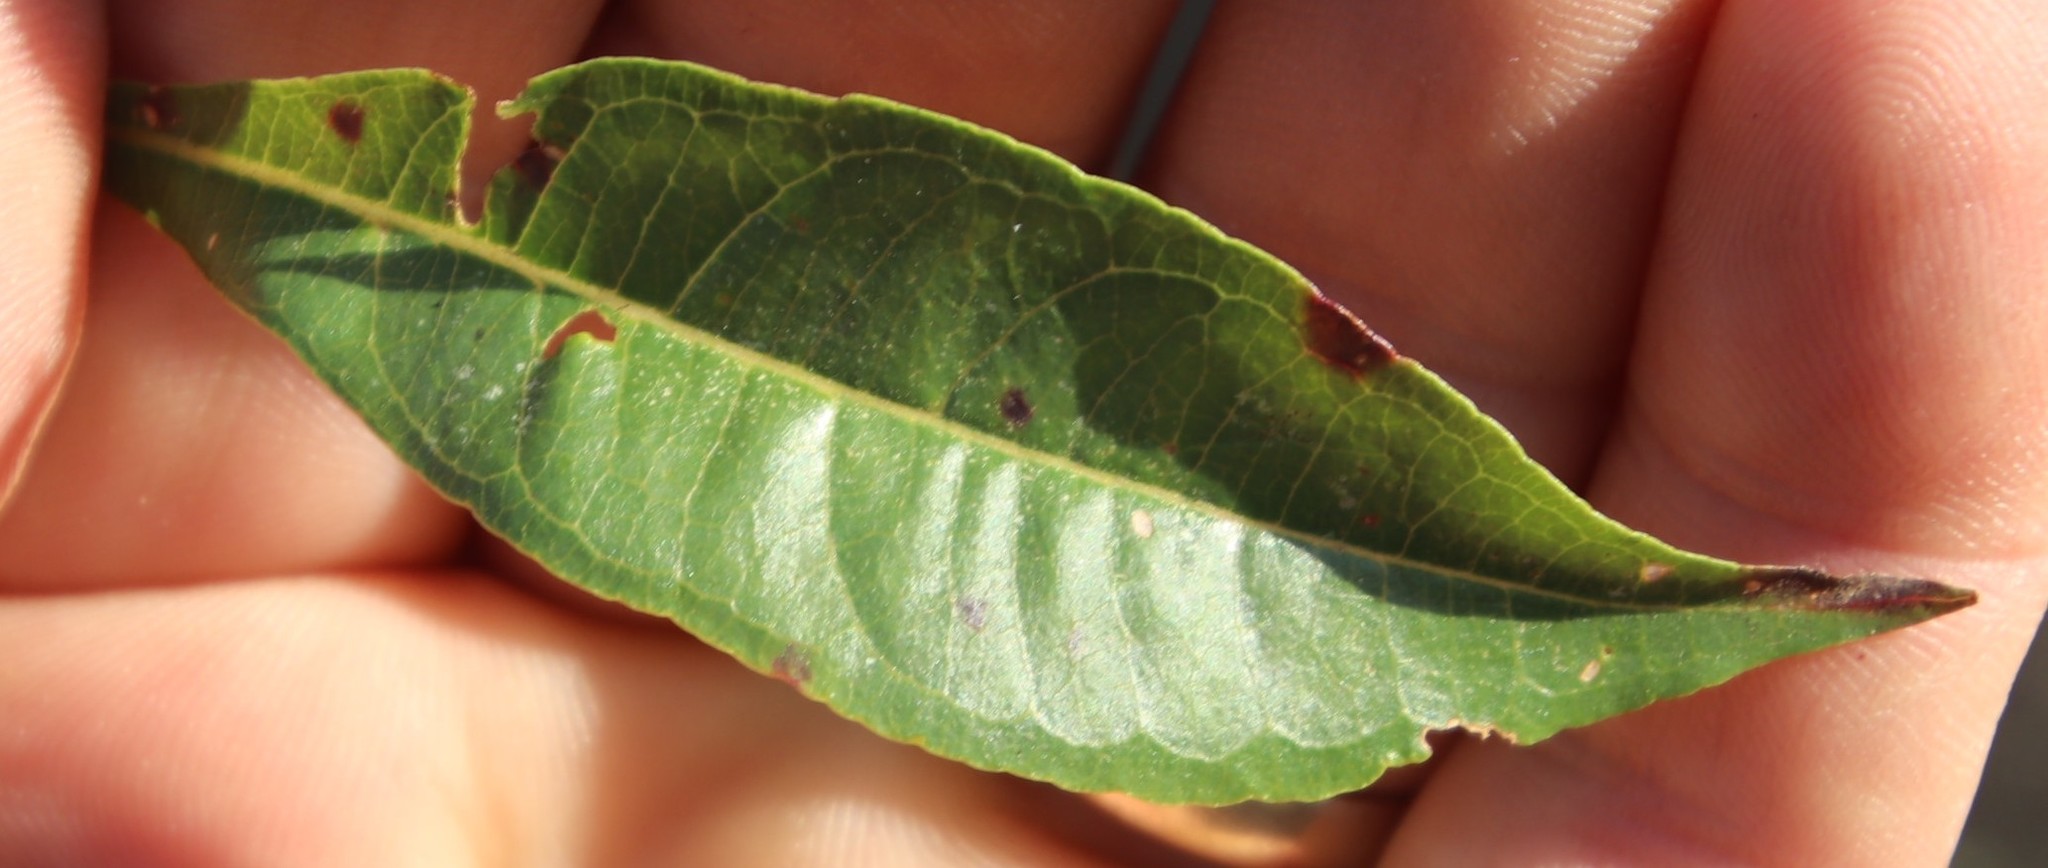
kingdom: Plantae
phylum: Tracheophyta
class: Magnoliopsida
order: Myrtales
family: Myrtaceae
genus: Heteropyxis
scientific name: Heteropyxis natalensis
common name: Lavender tree
